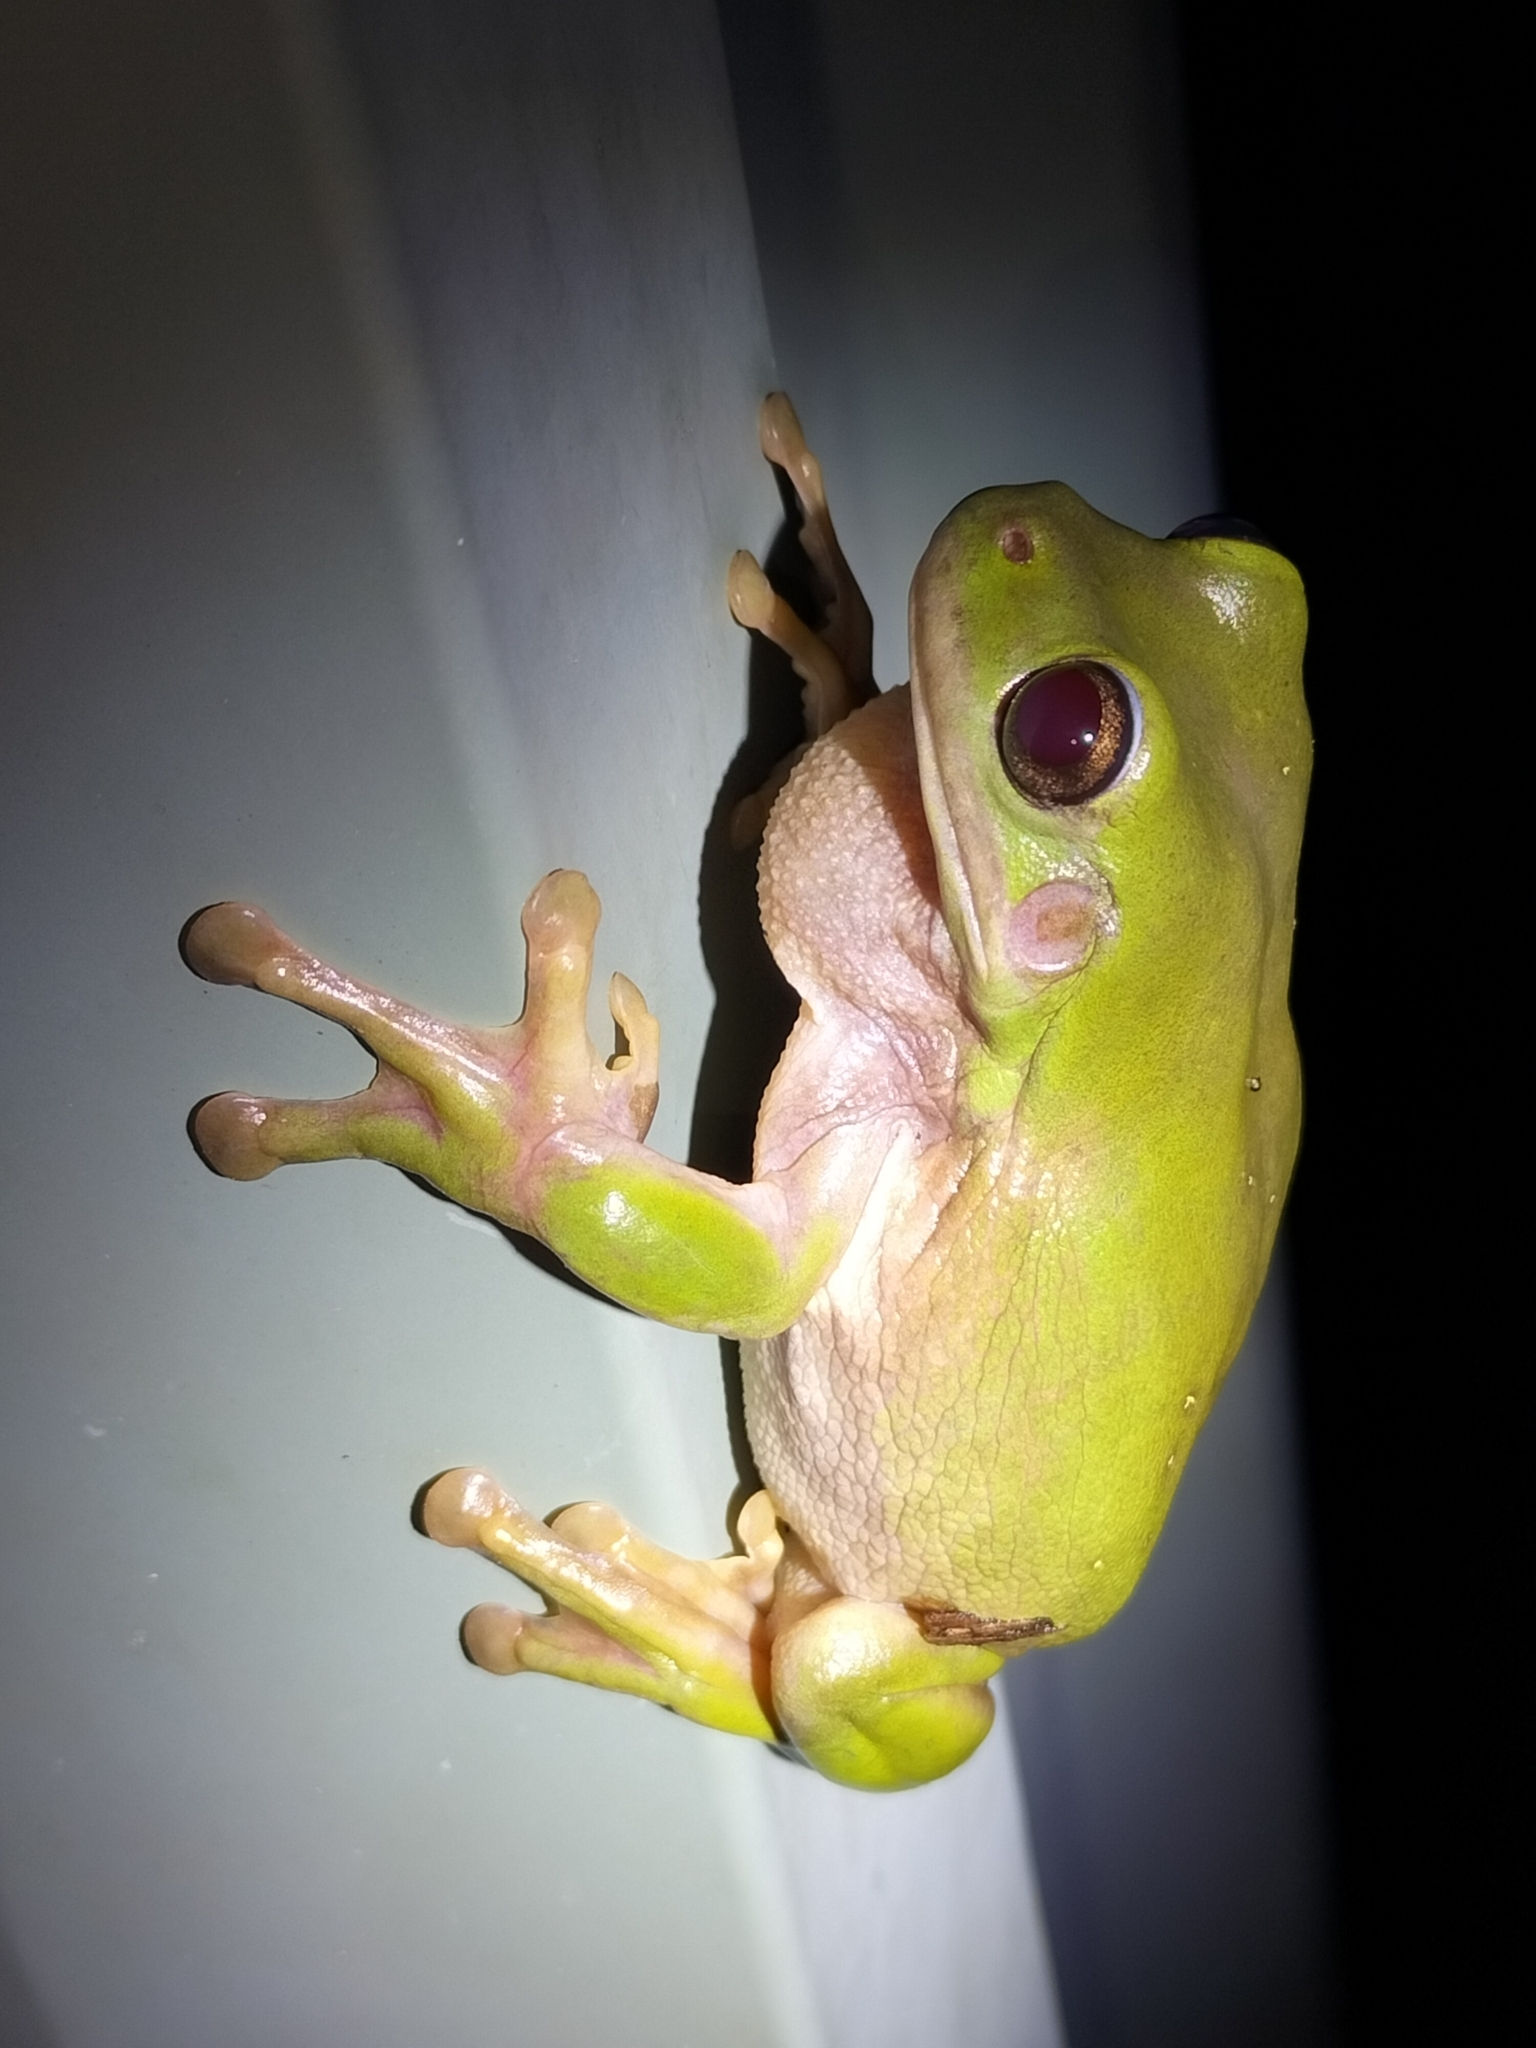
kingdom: Animalia
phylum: Chordata
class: Amphibia
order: Anura
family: Pelodryadidae
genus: Ranoidea
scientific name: Ranoidea caerulea
